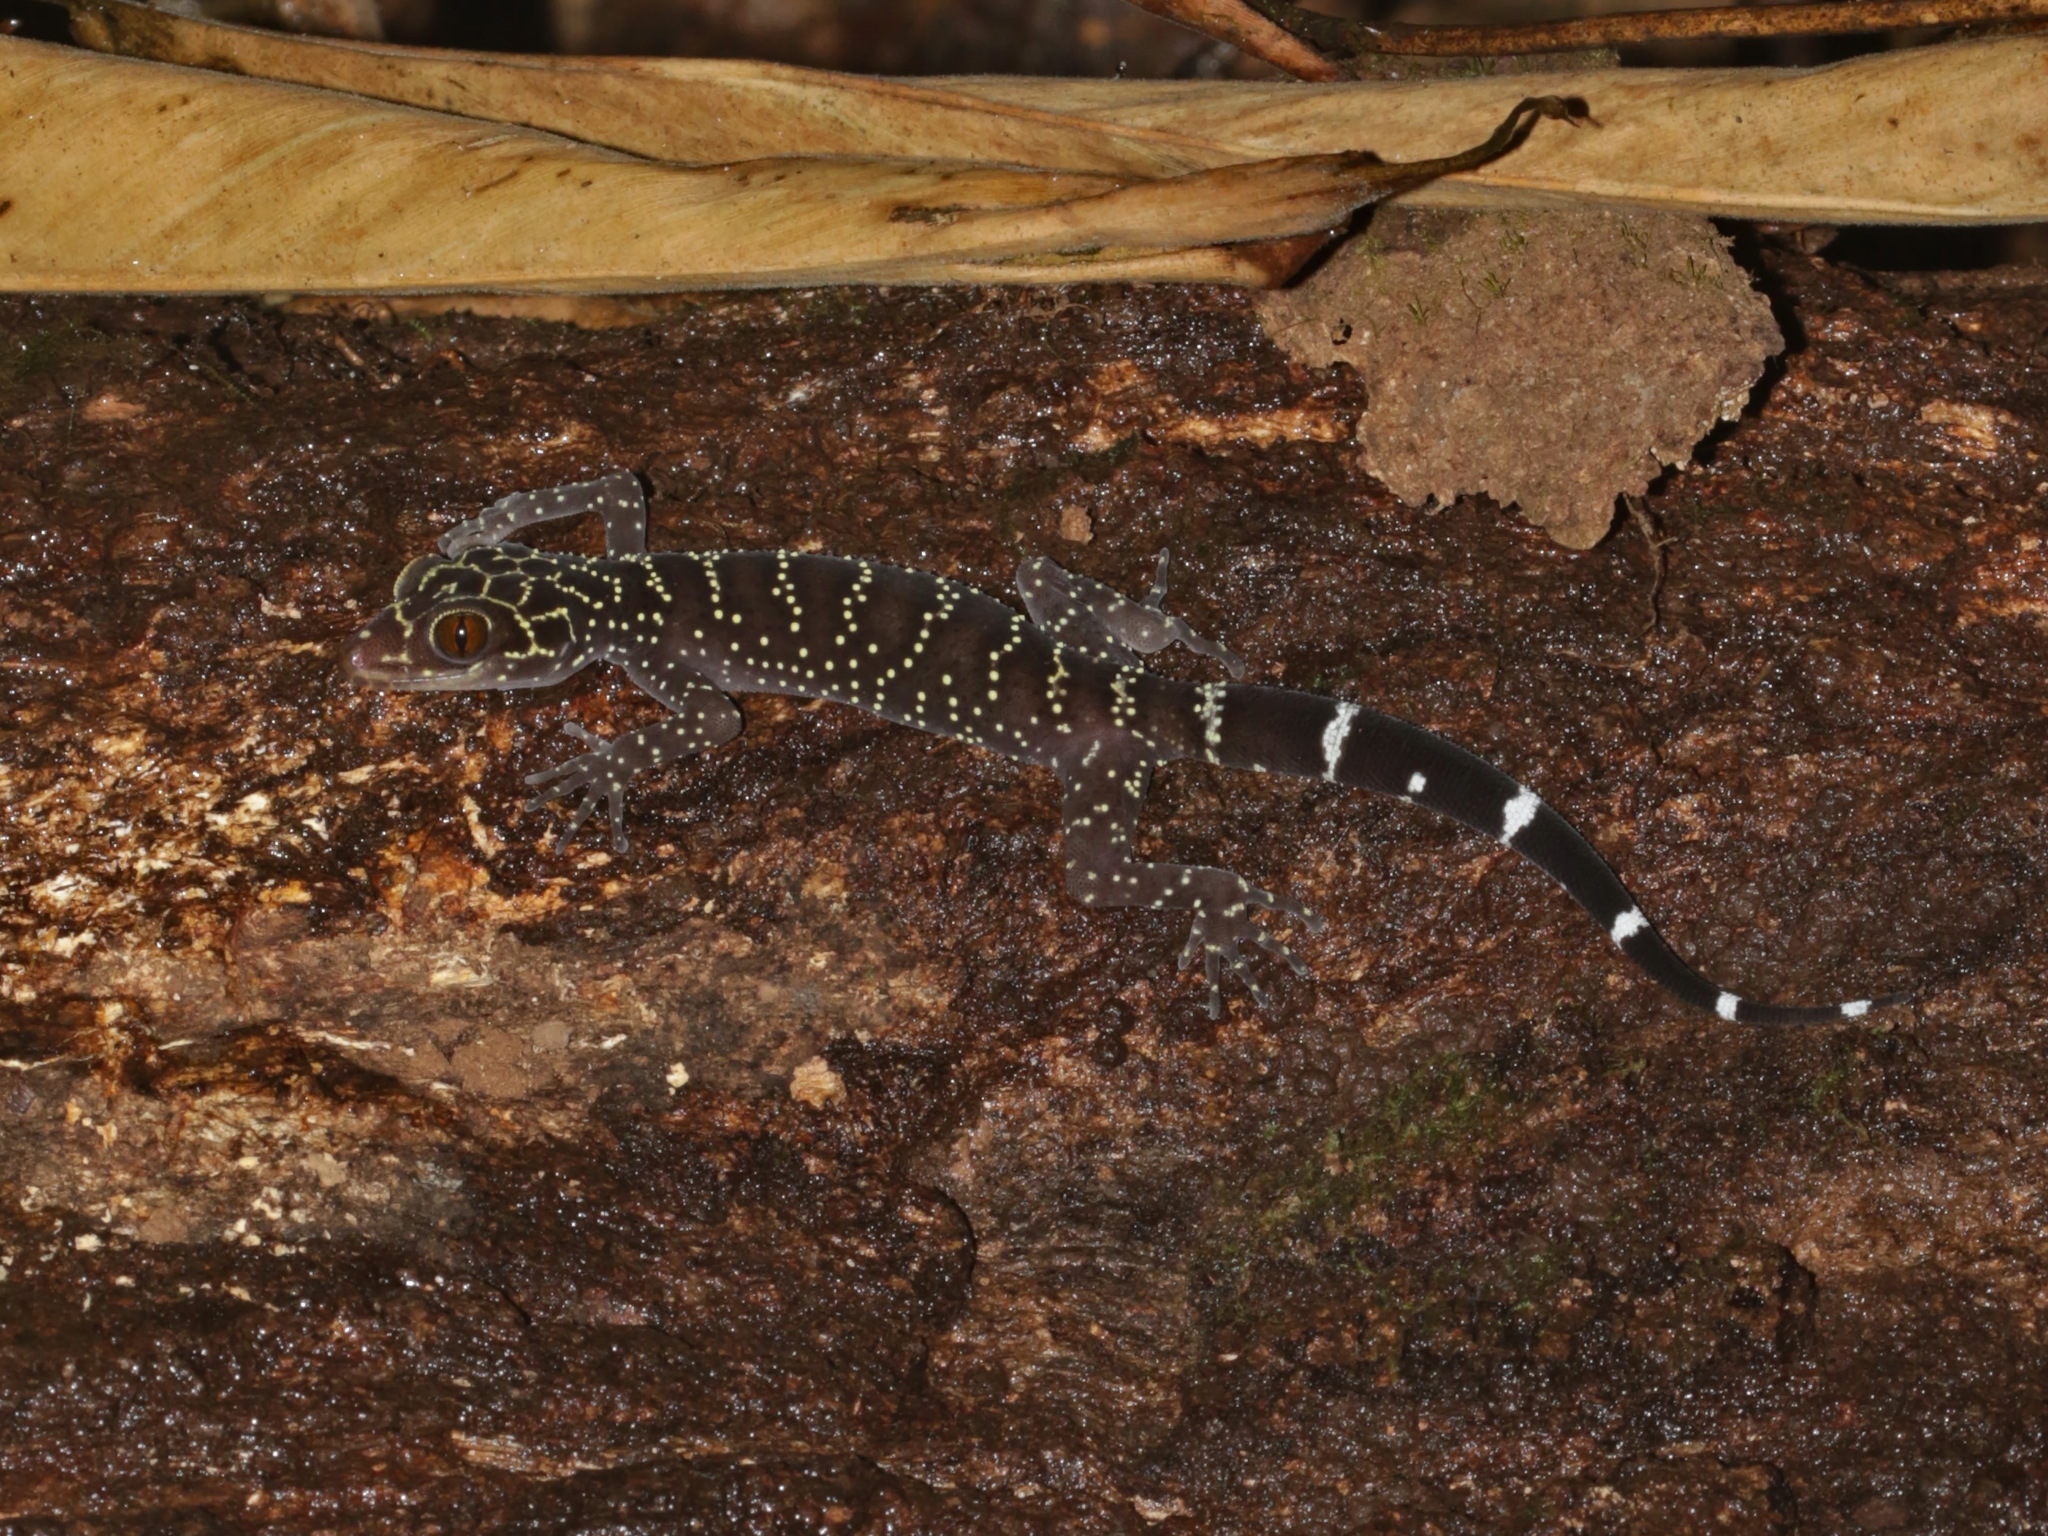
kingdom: Animalia
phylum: Chordata
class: Squamata
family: Gekkonidae
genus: Cyrtodactylus
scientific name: Cyrtodactylus phuketensis
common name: Phuket bent-toed gecko
